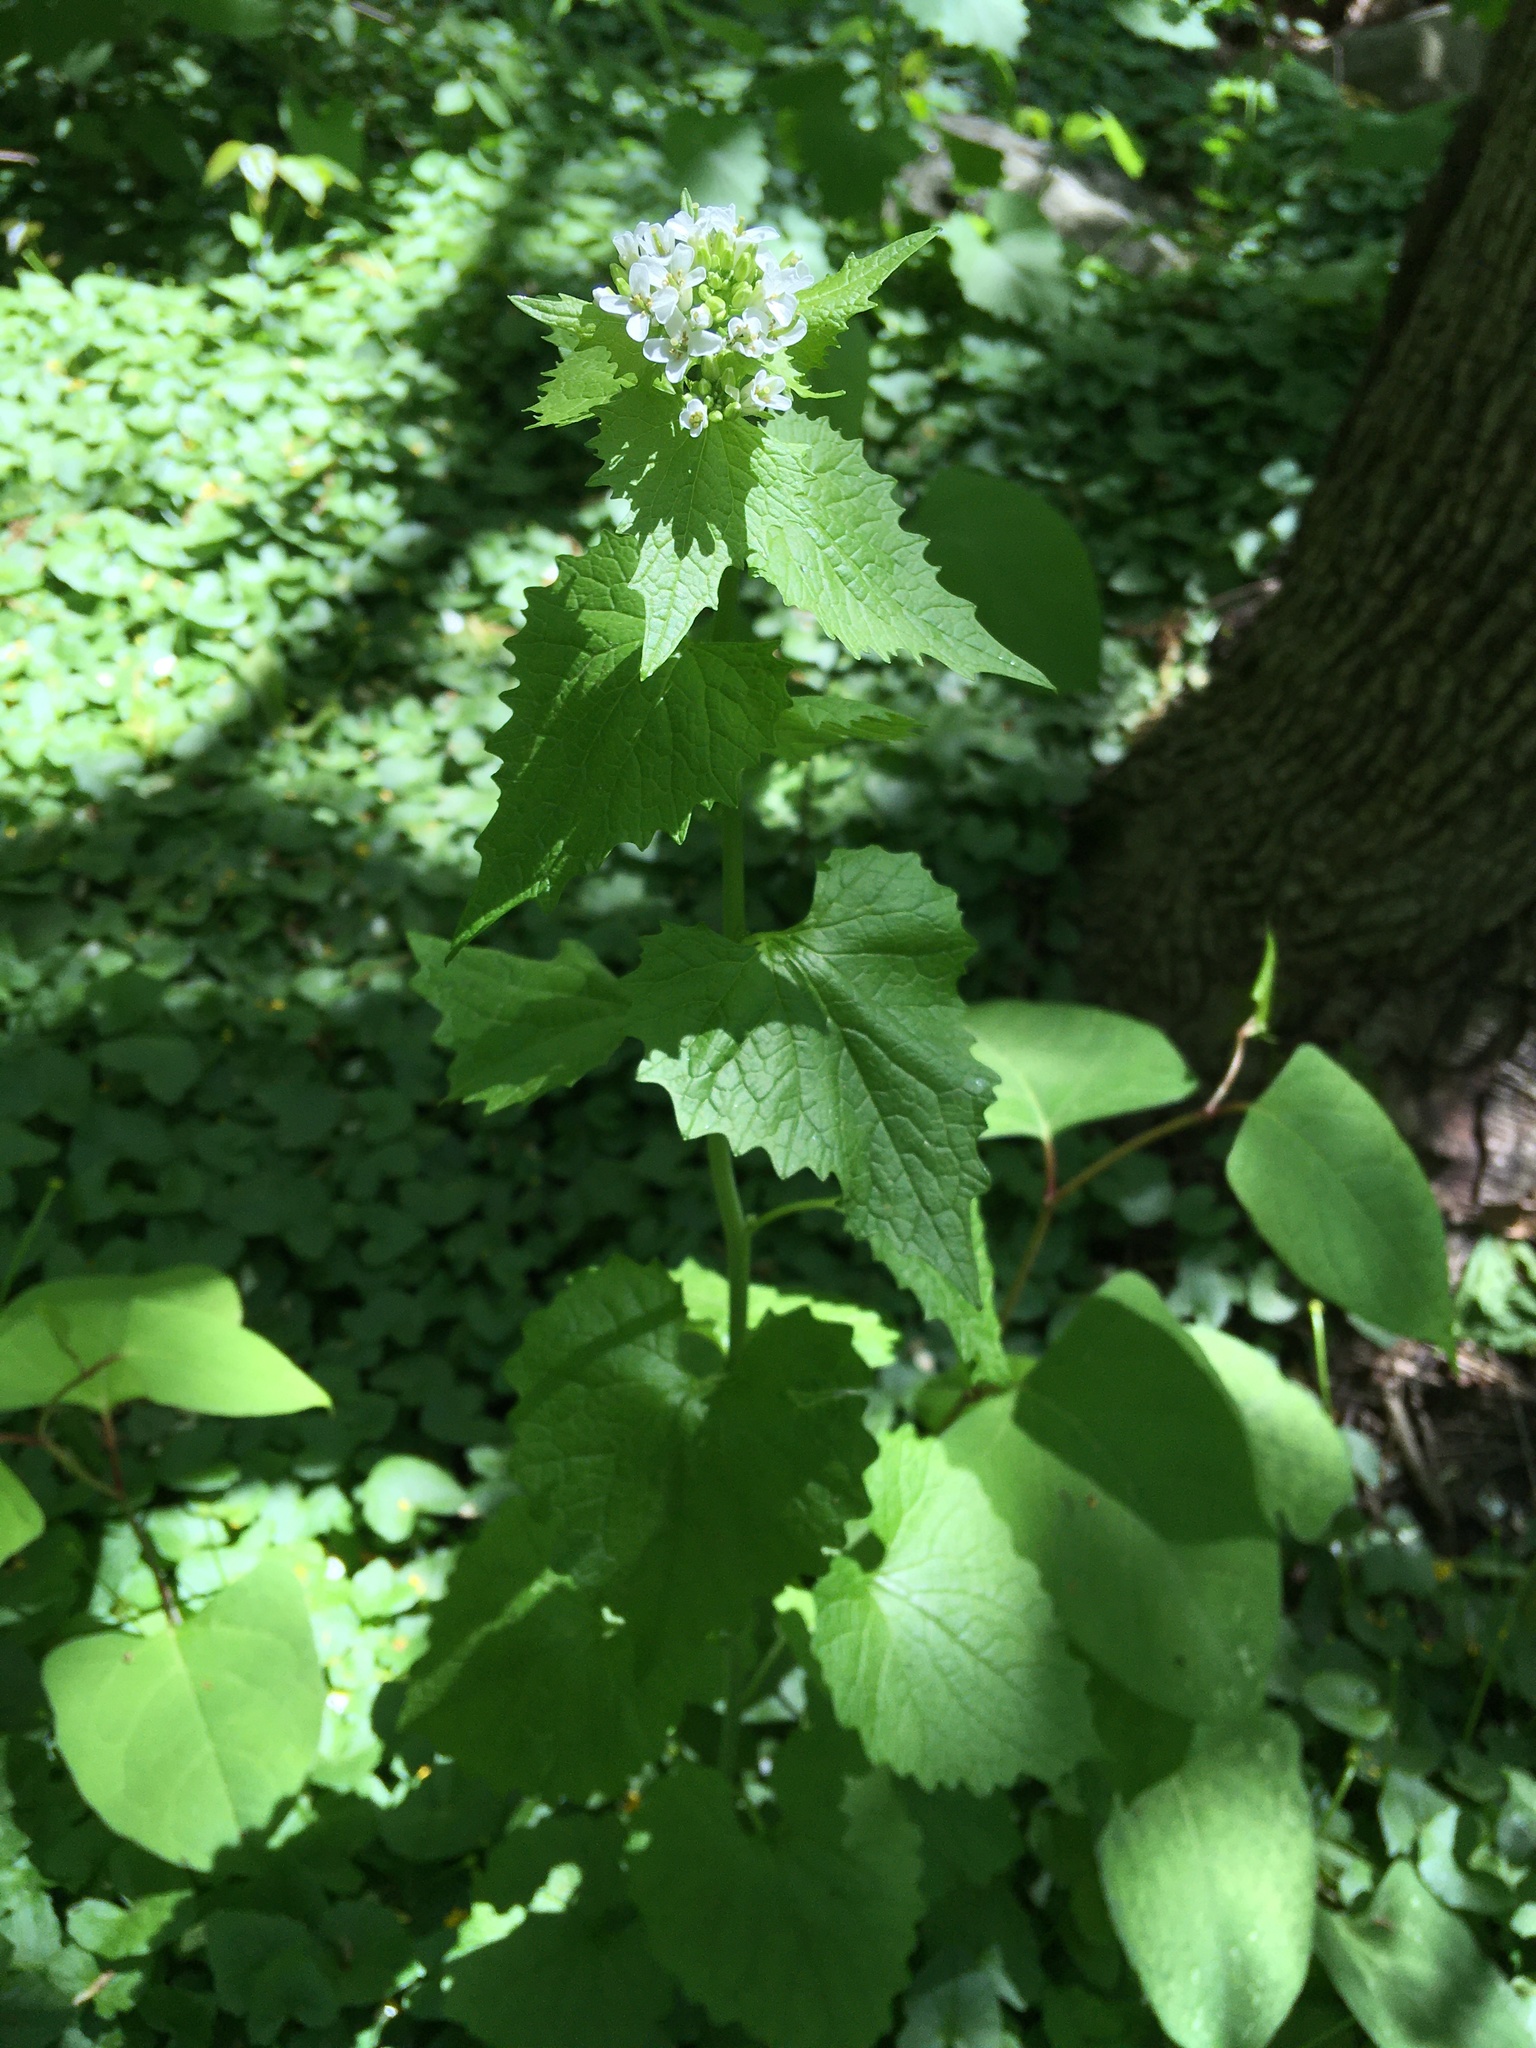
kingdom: Plantae
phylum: Tracheophyta
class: Magnoliopsida
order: Brassicales
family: Brassicaceae
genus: Alliaria
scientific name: Alliaria petiolata
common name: Garlic mustard
